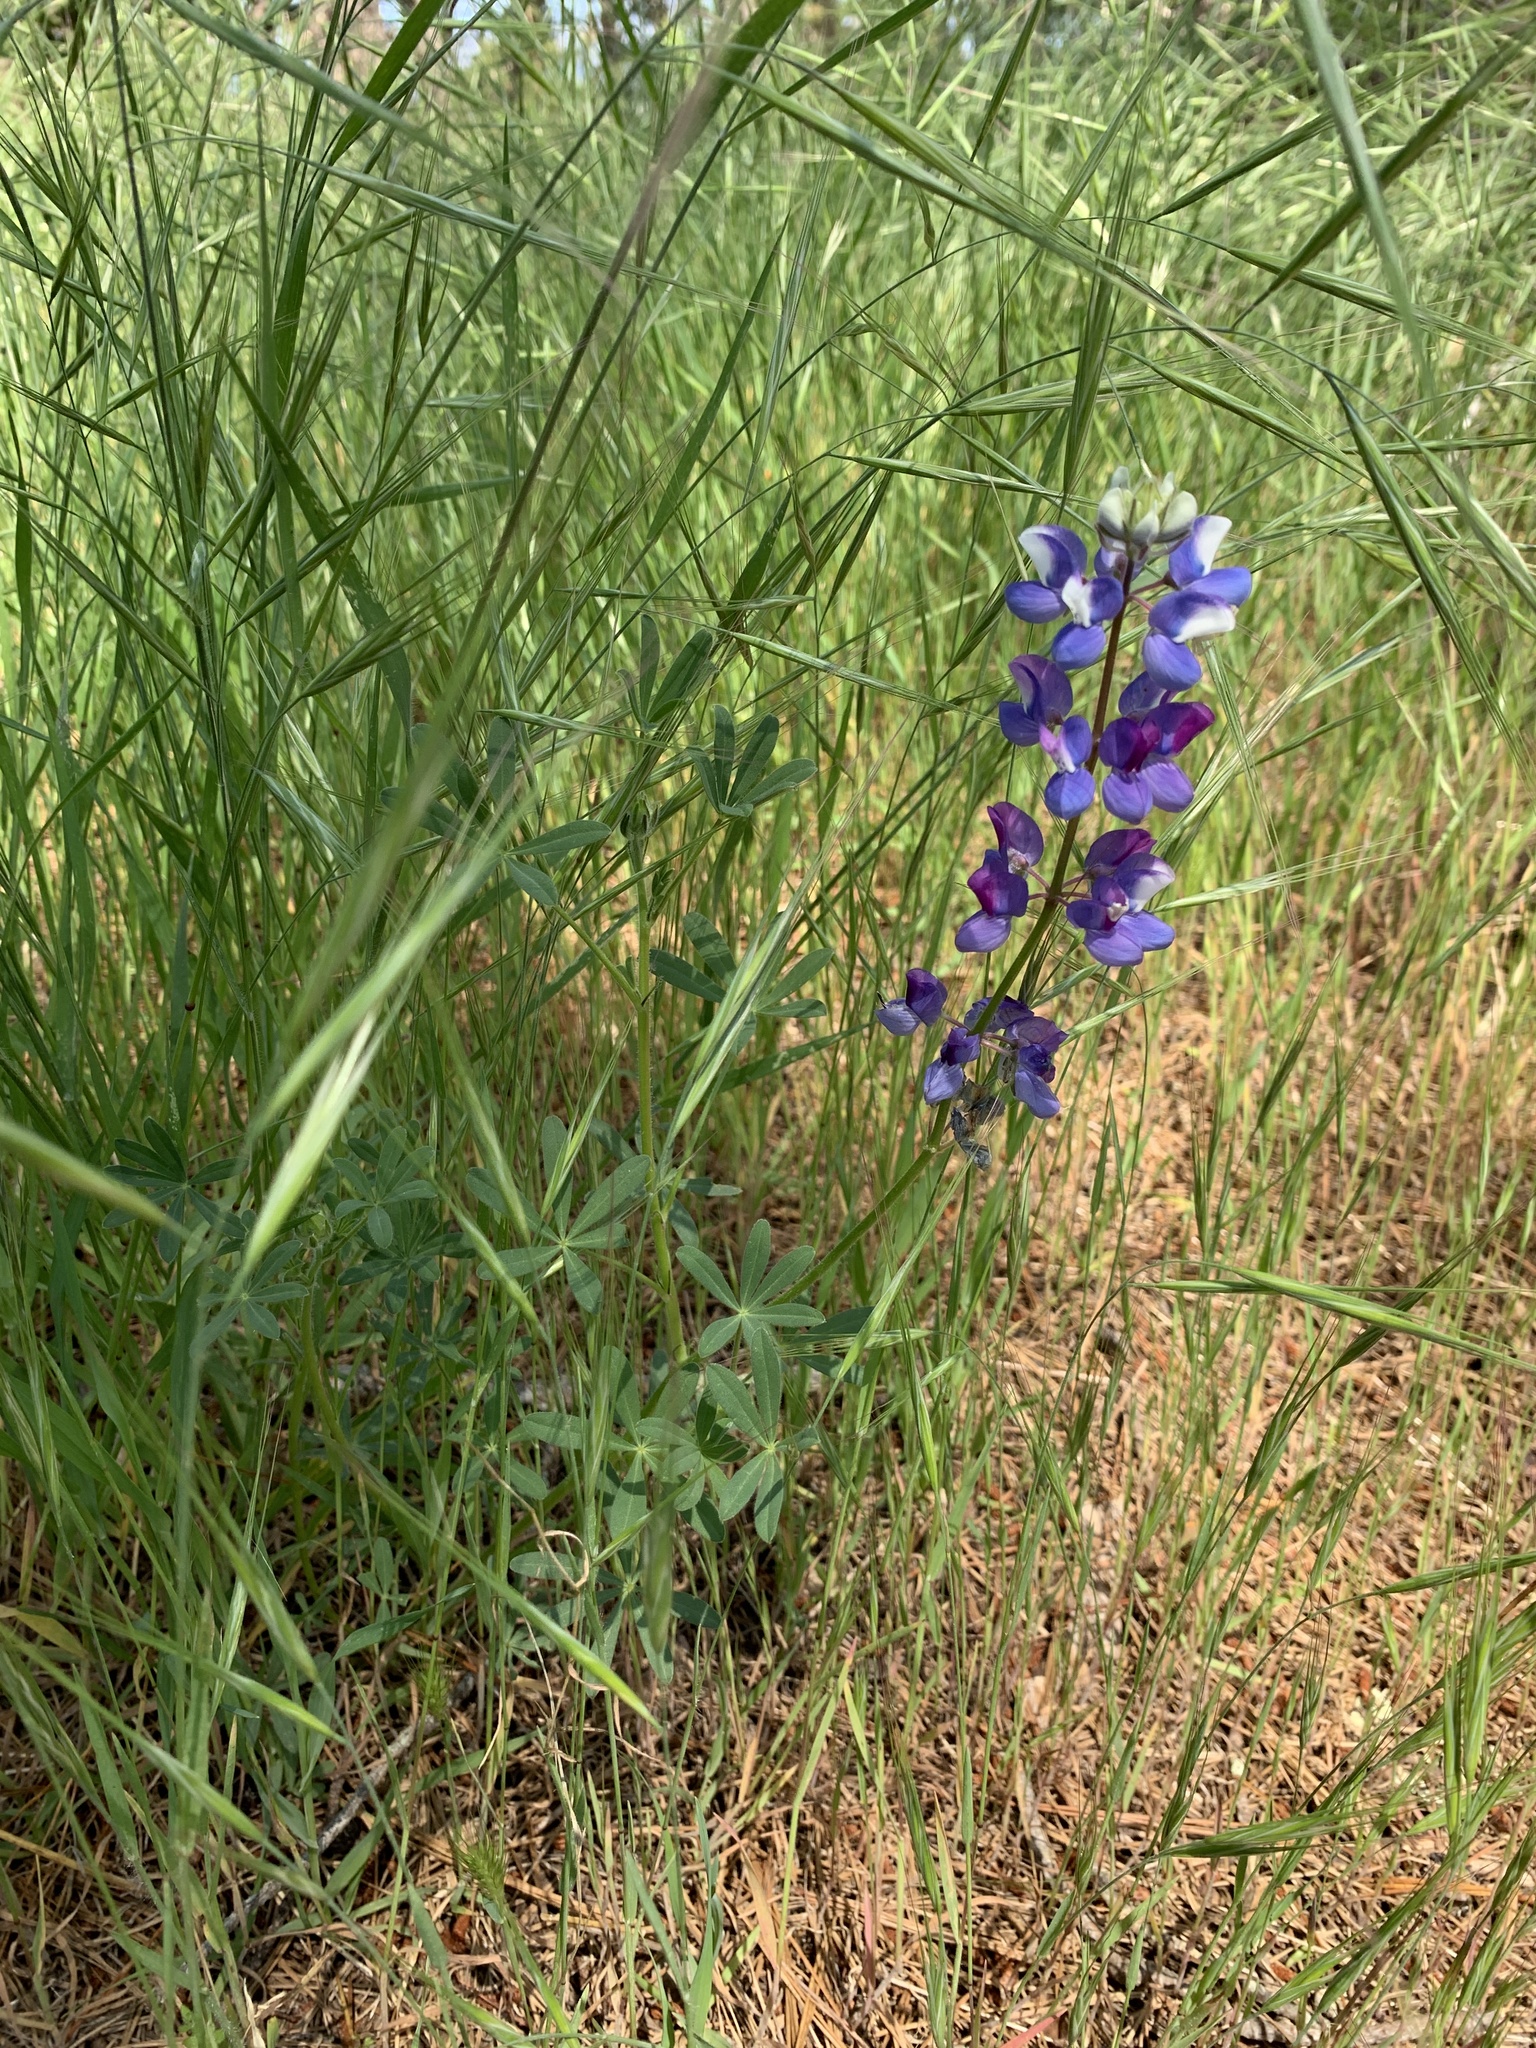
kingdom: Plantae
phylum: Tracheophyta
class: Magnoliopsida
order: Fabales
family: Fabaceae
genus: Lupinus
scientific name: Lupinus nanus
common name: Orean blue lupin
